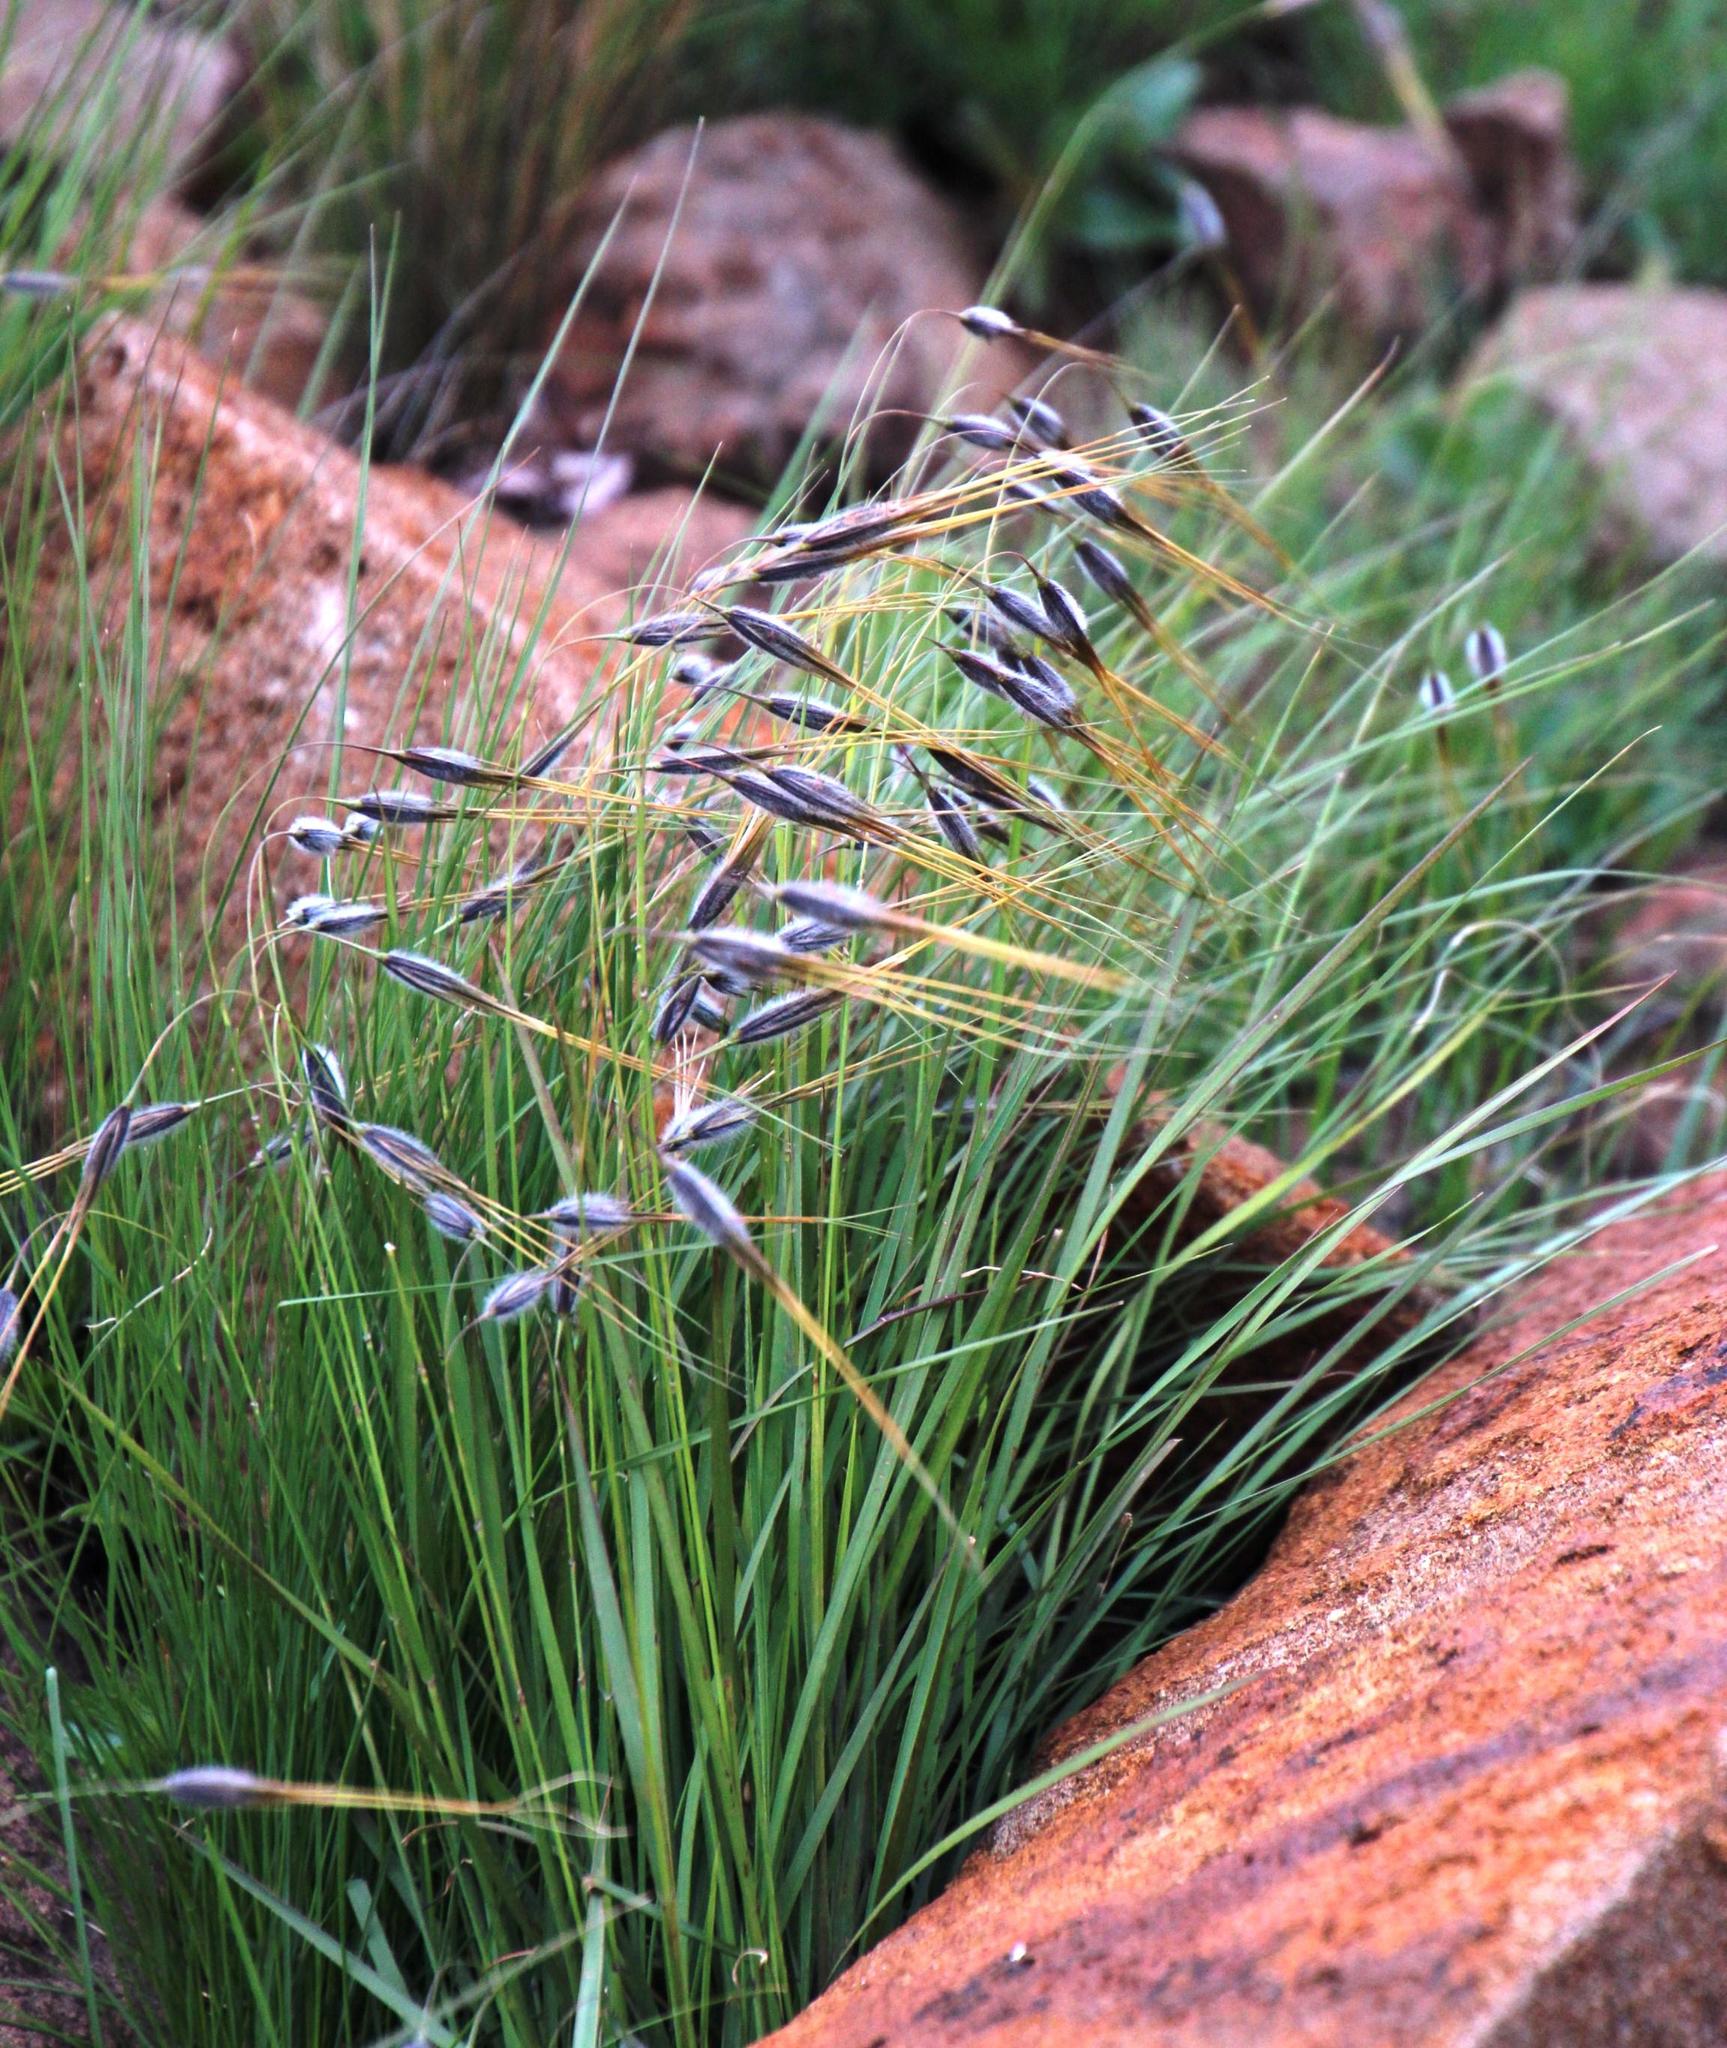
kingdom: Plantae
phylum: Tracheophyta
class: Liliopsida
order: Poales
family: Poaceae
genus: Tristachya
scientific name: Tristachya leucothrix
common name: Trident grass
